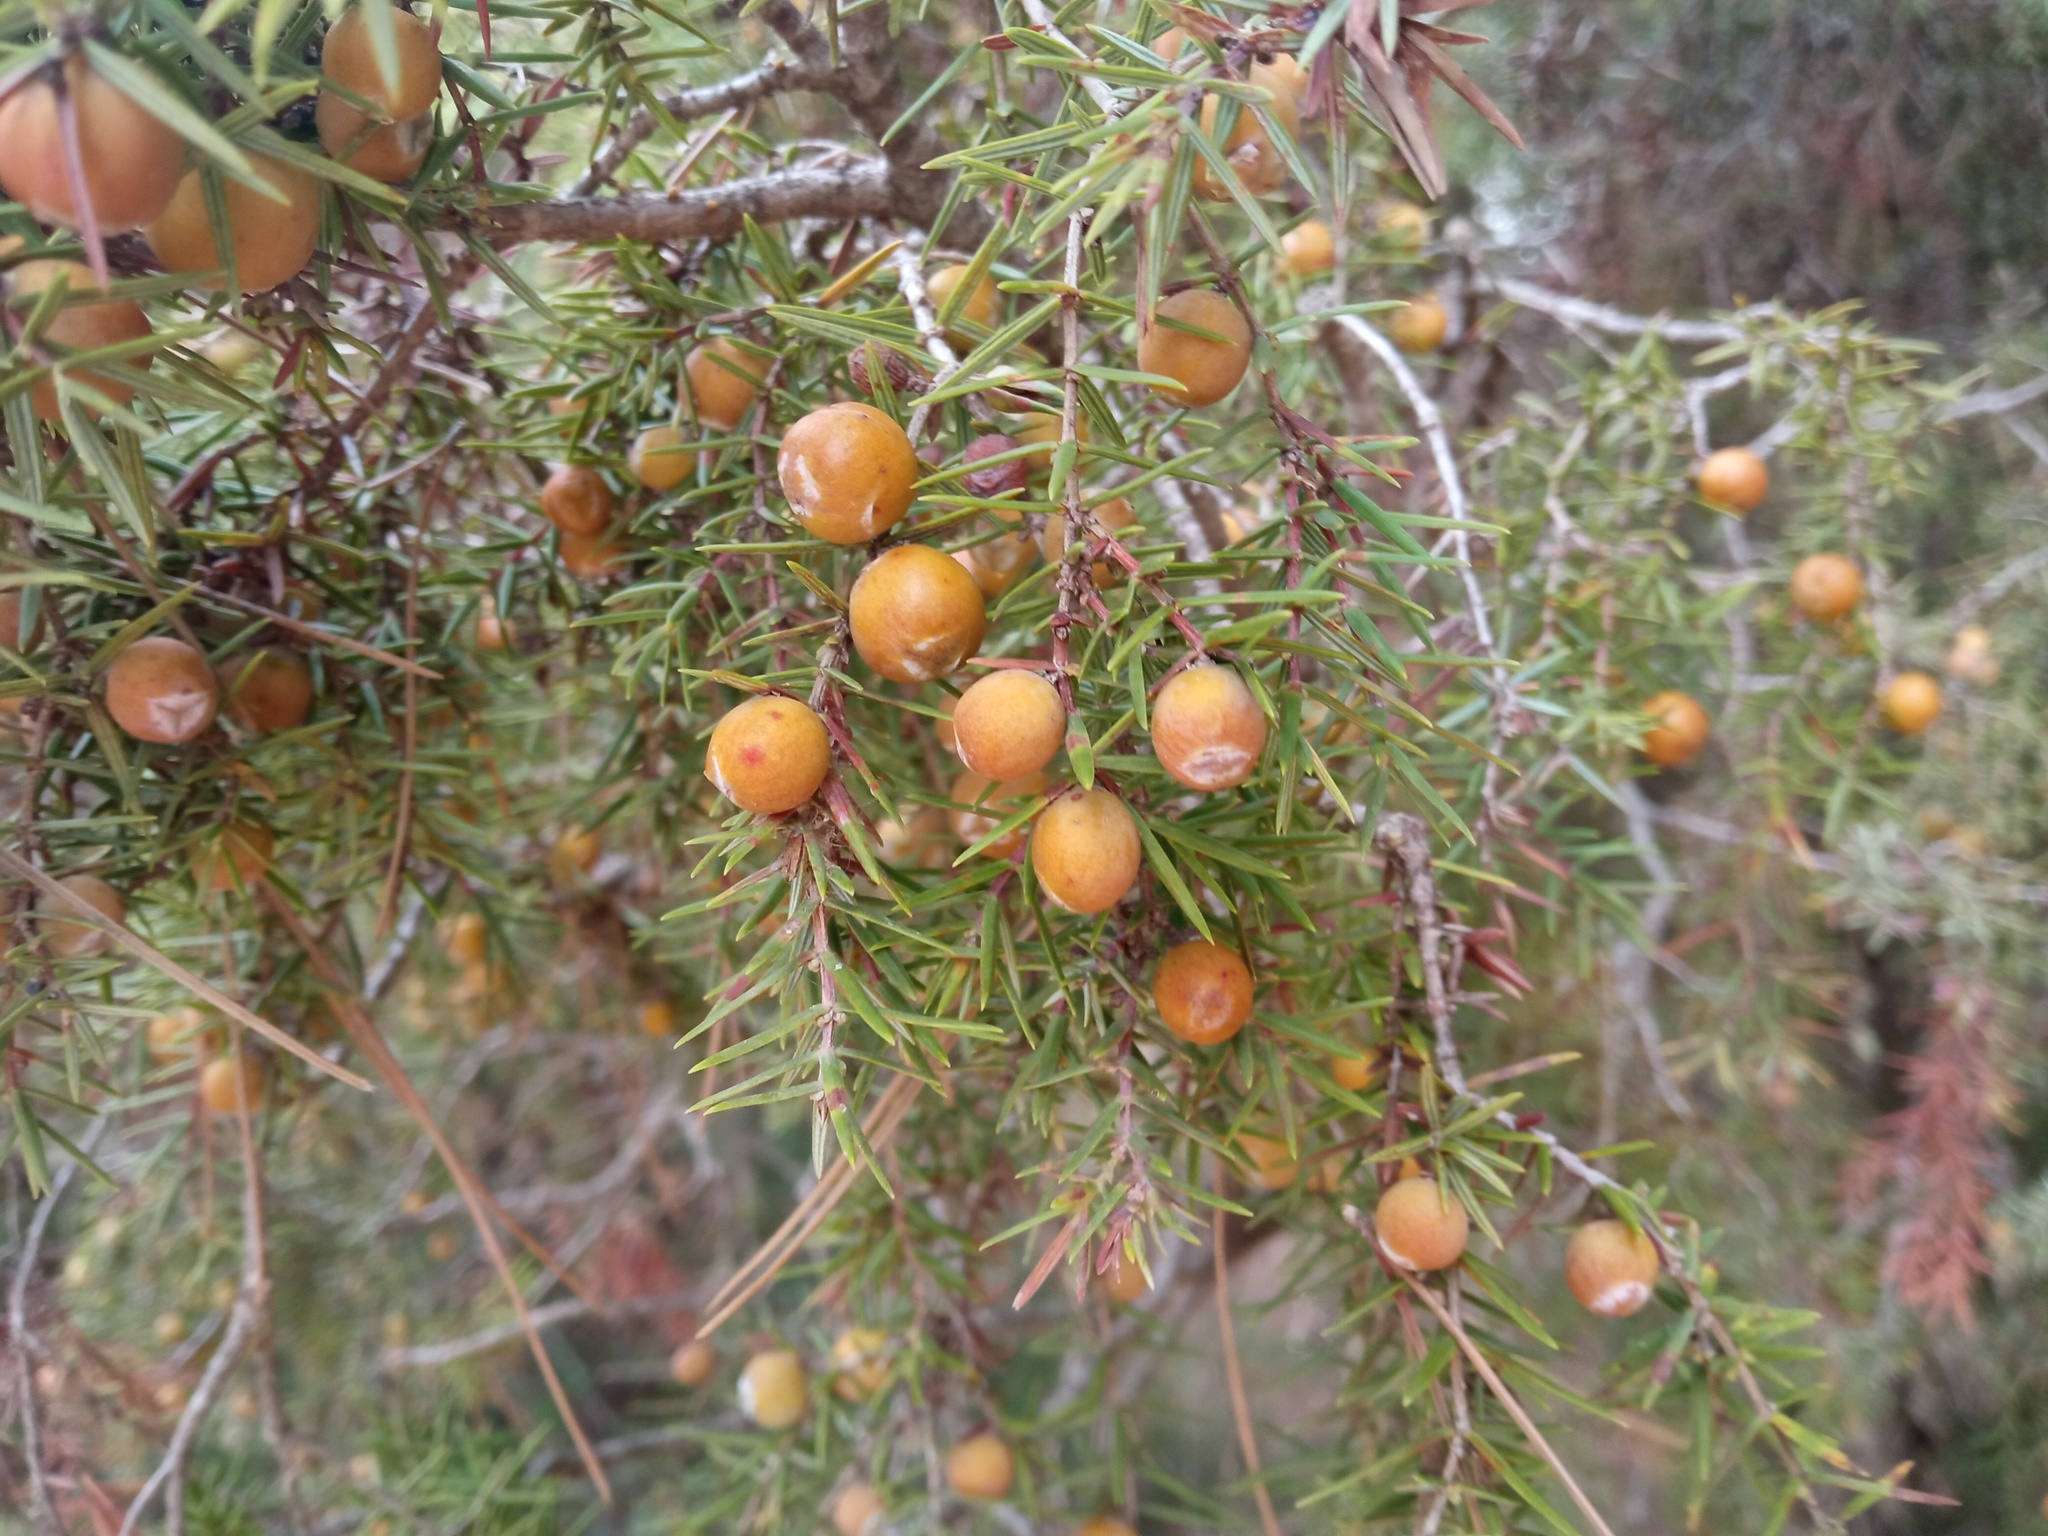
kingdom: Plantae
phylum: Tracheophyta
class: Pinopsida
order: Pinales
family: Cupressaceae
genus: Juniperus
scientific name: Juniperus oxycedrus
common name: Prickly juniper
